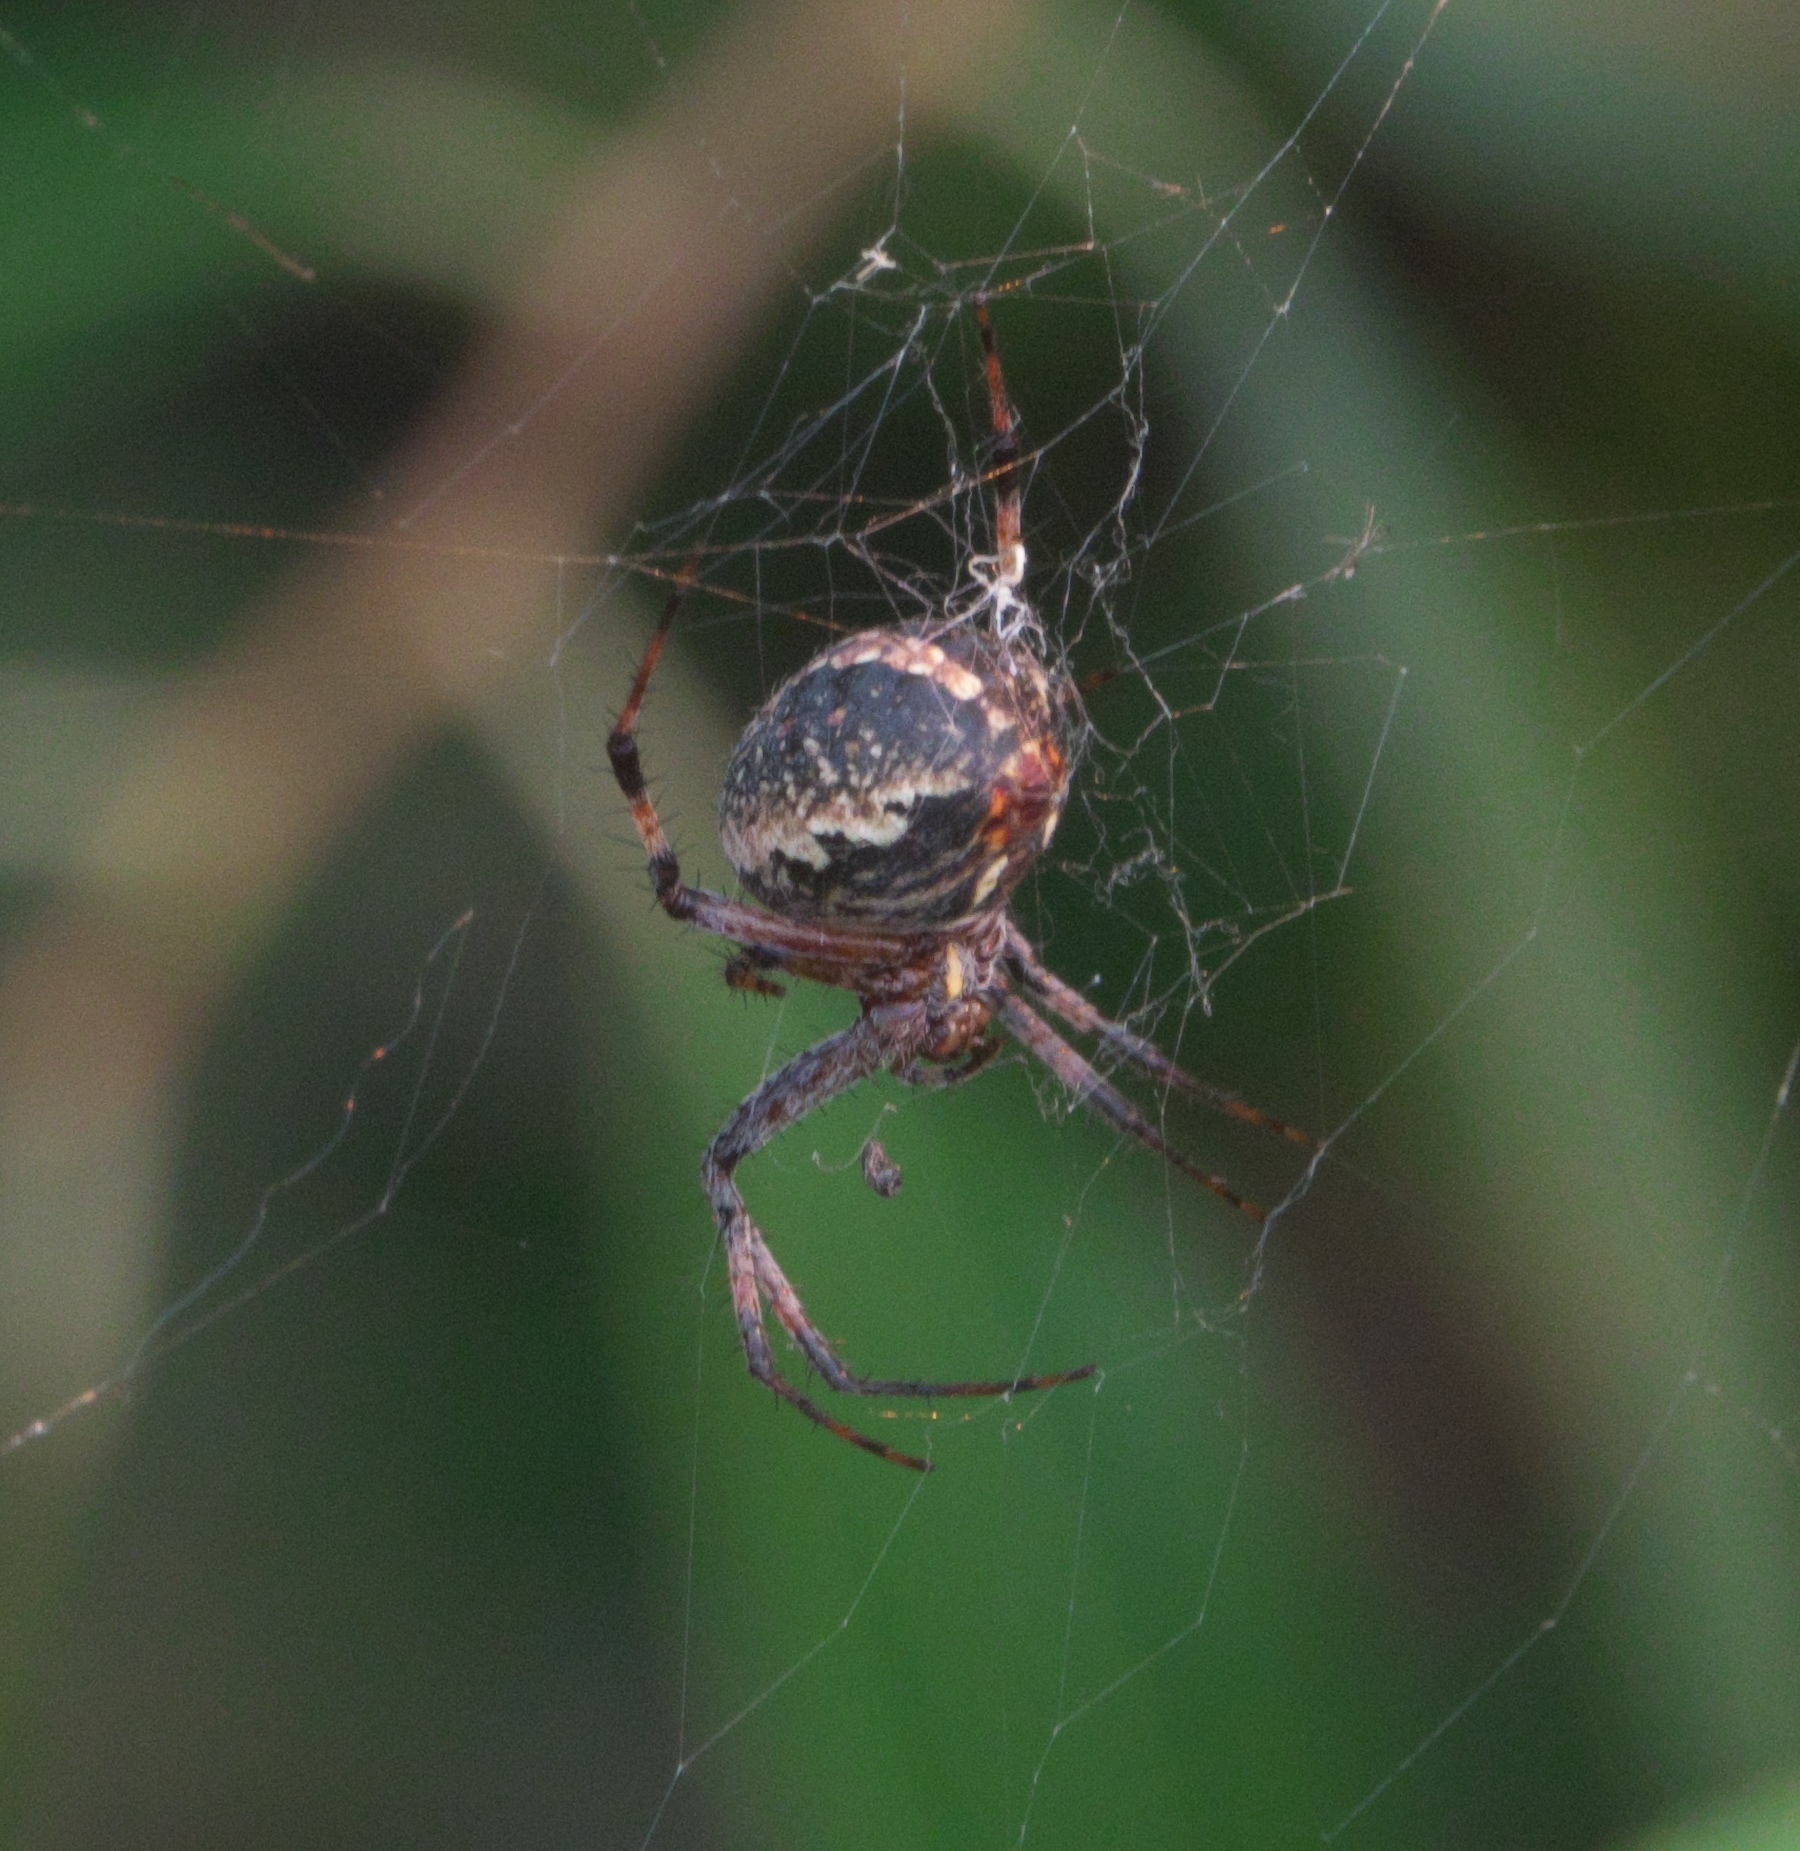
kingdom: Animalia
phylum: Arthropoda
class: Arachnida
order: Araneae
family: Araneidae
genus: Neoscona
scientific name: Neoscona oaxacensis
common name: Orb weavers
